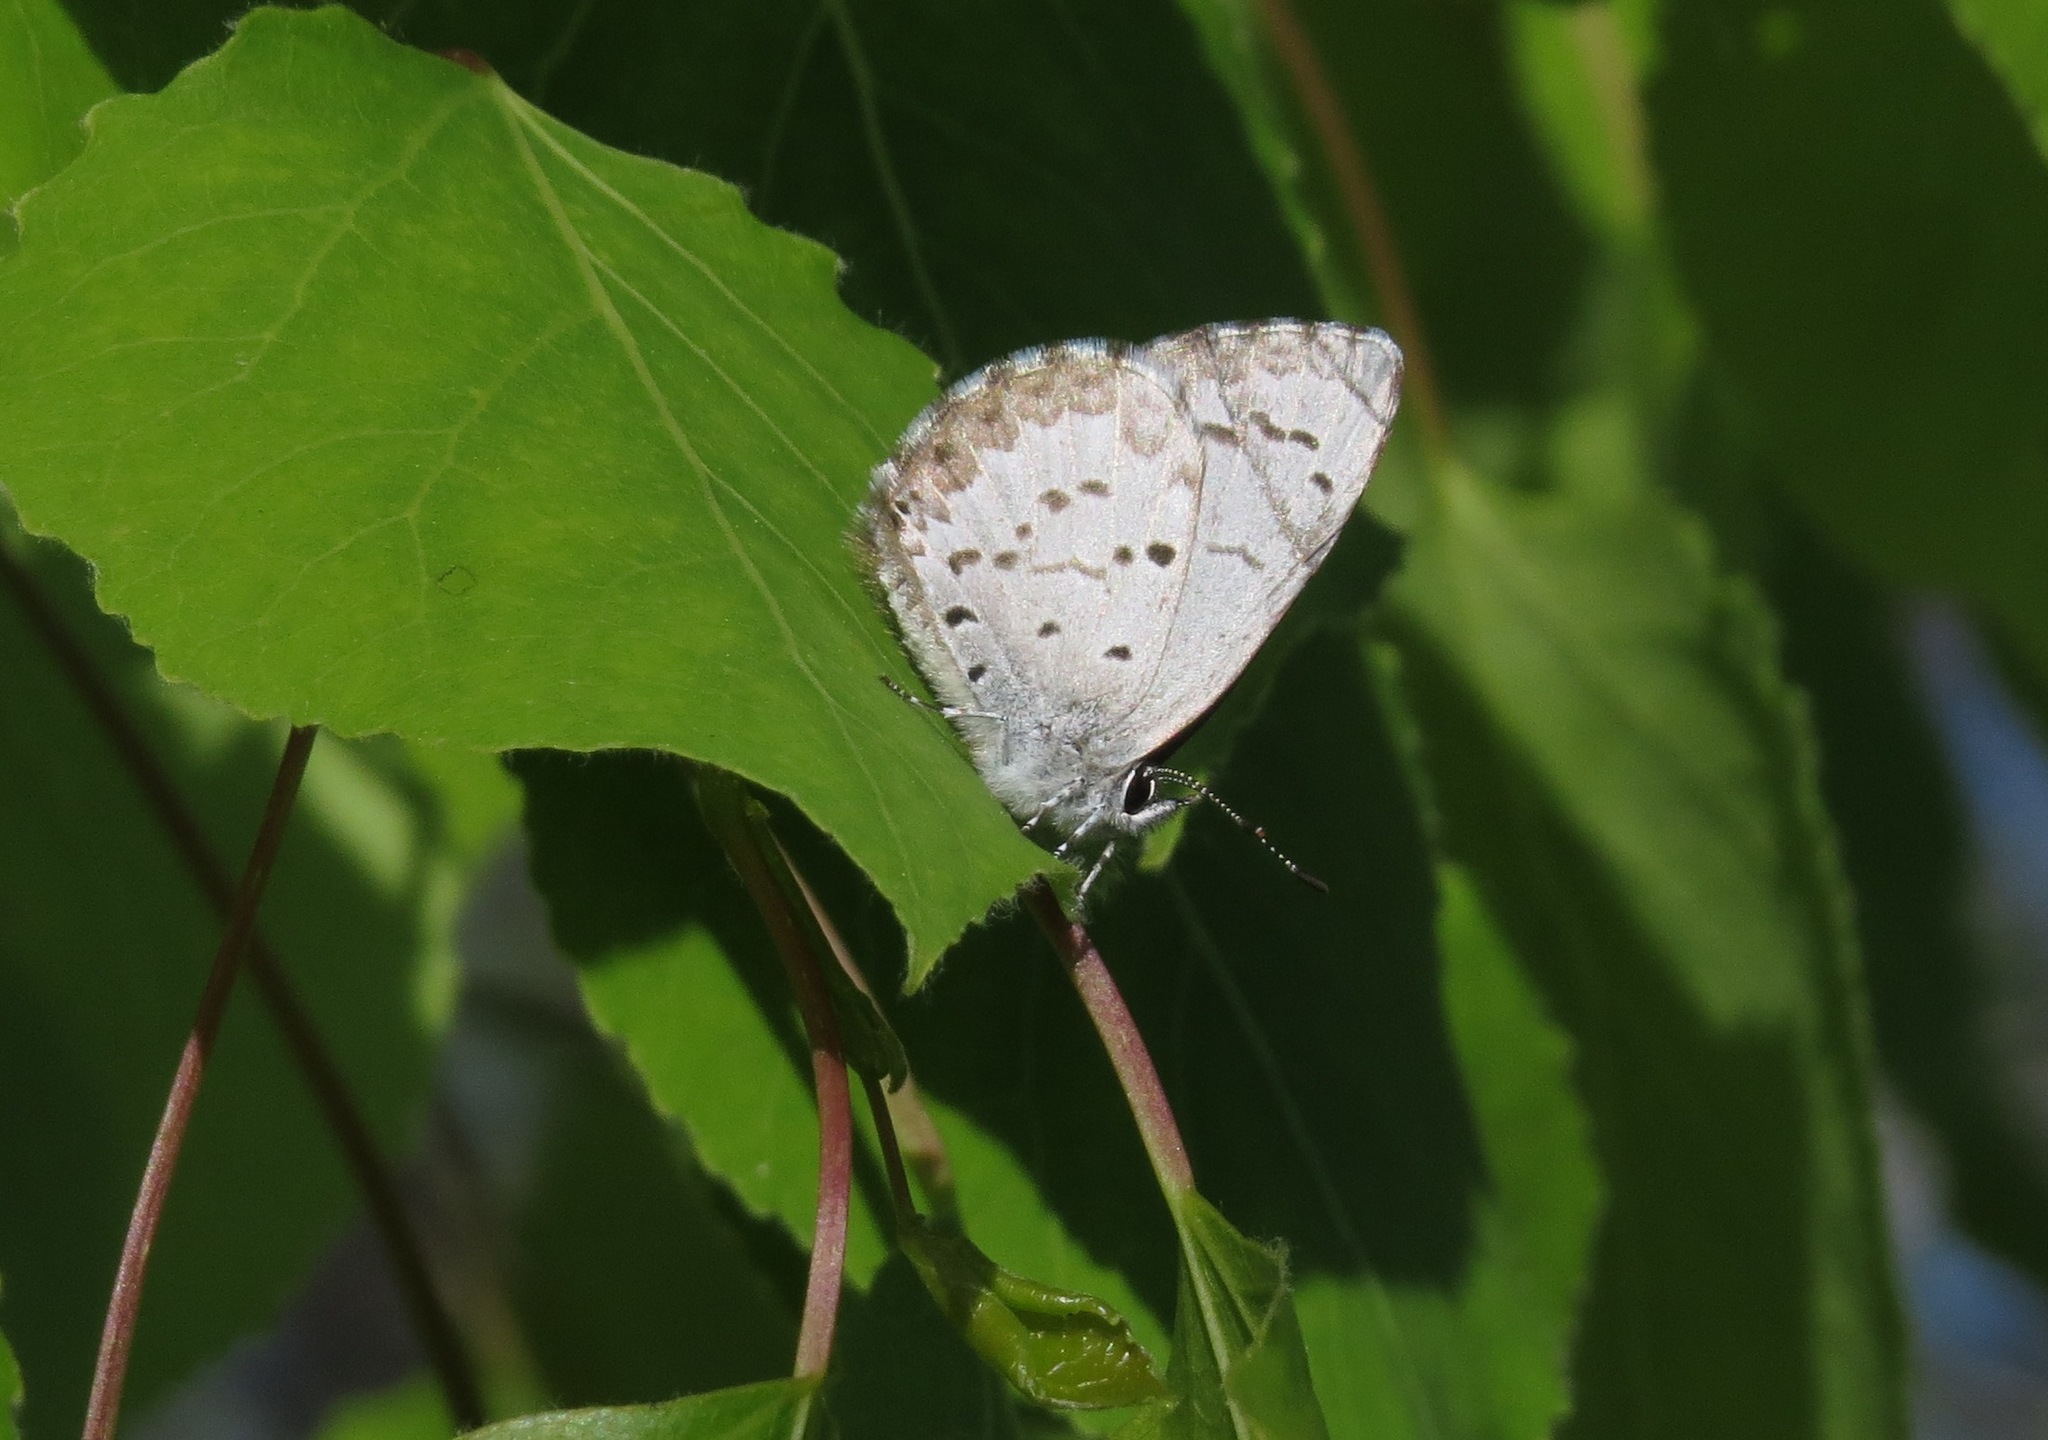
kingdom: Animalia
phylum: Arthropoda
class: Insecta
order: Lepidoptera
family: Lycaenidae
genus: Celastrina
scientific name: Celastrina lucia
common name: Lucia azure
